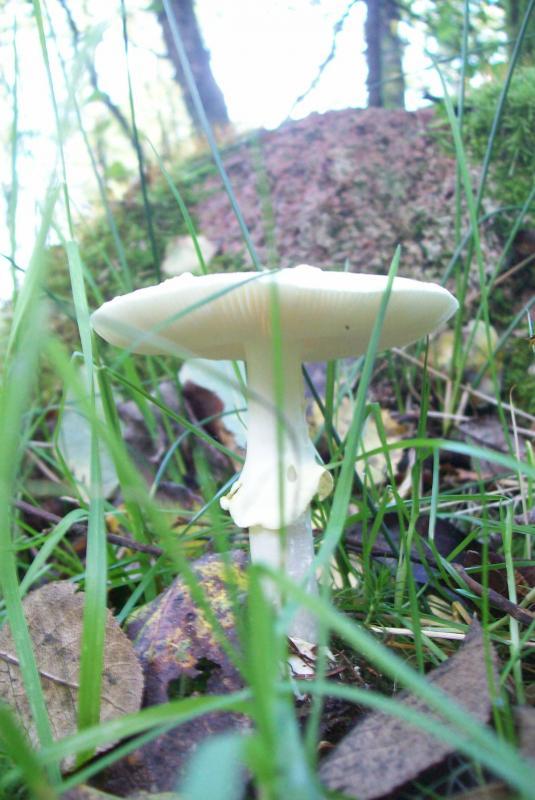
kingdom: Fungi
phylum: Basidiomycota
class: Agaricomycetes
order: Agaricales
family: Amanitaceae
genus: Amanita
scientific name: Amanita citrina
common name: False death-cap
